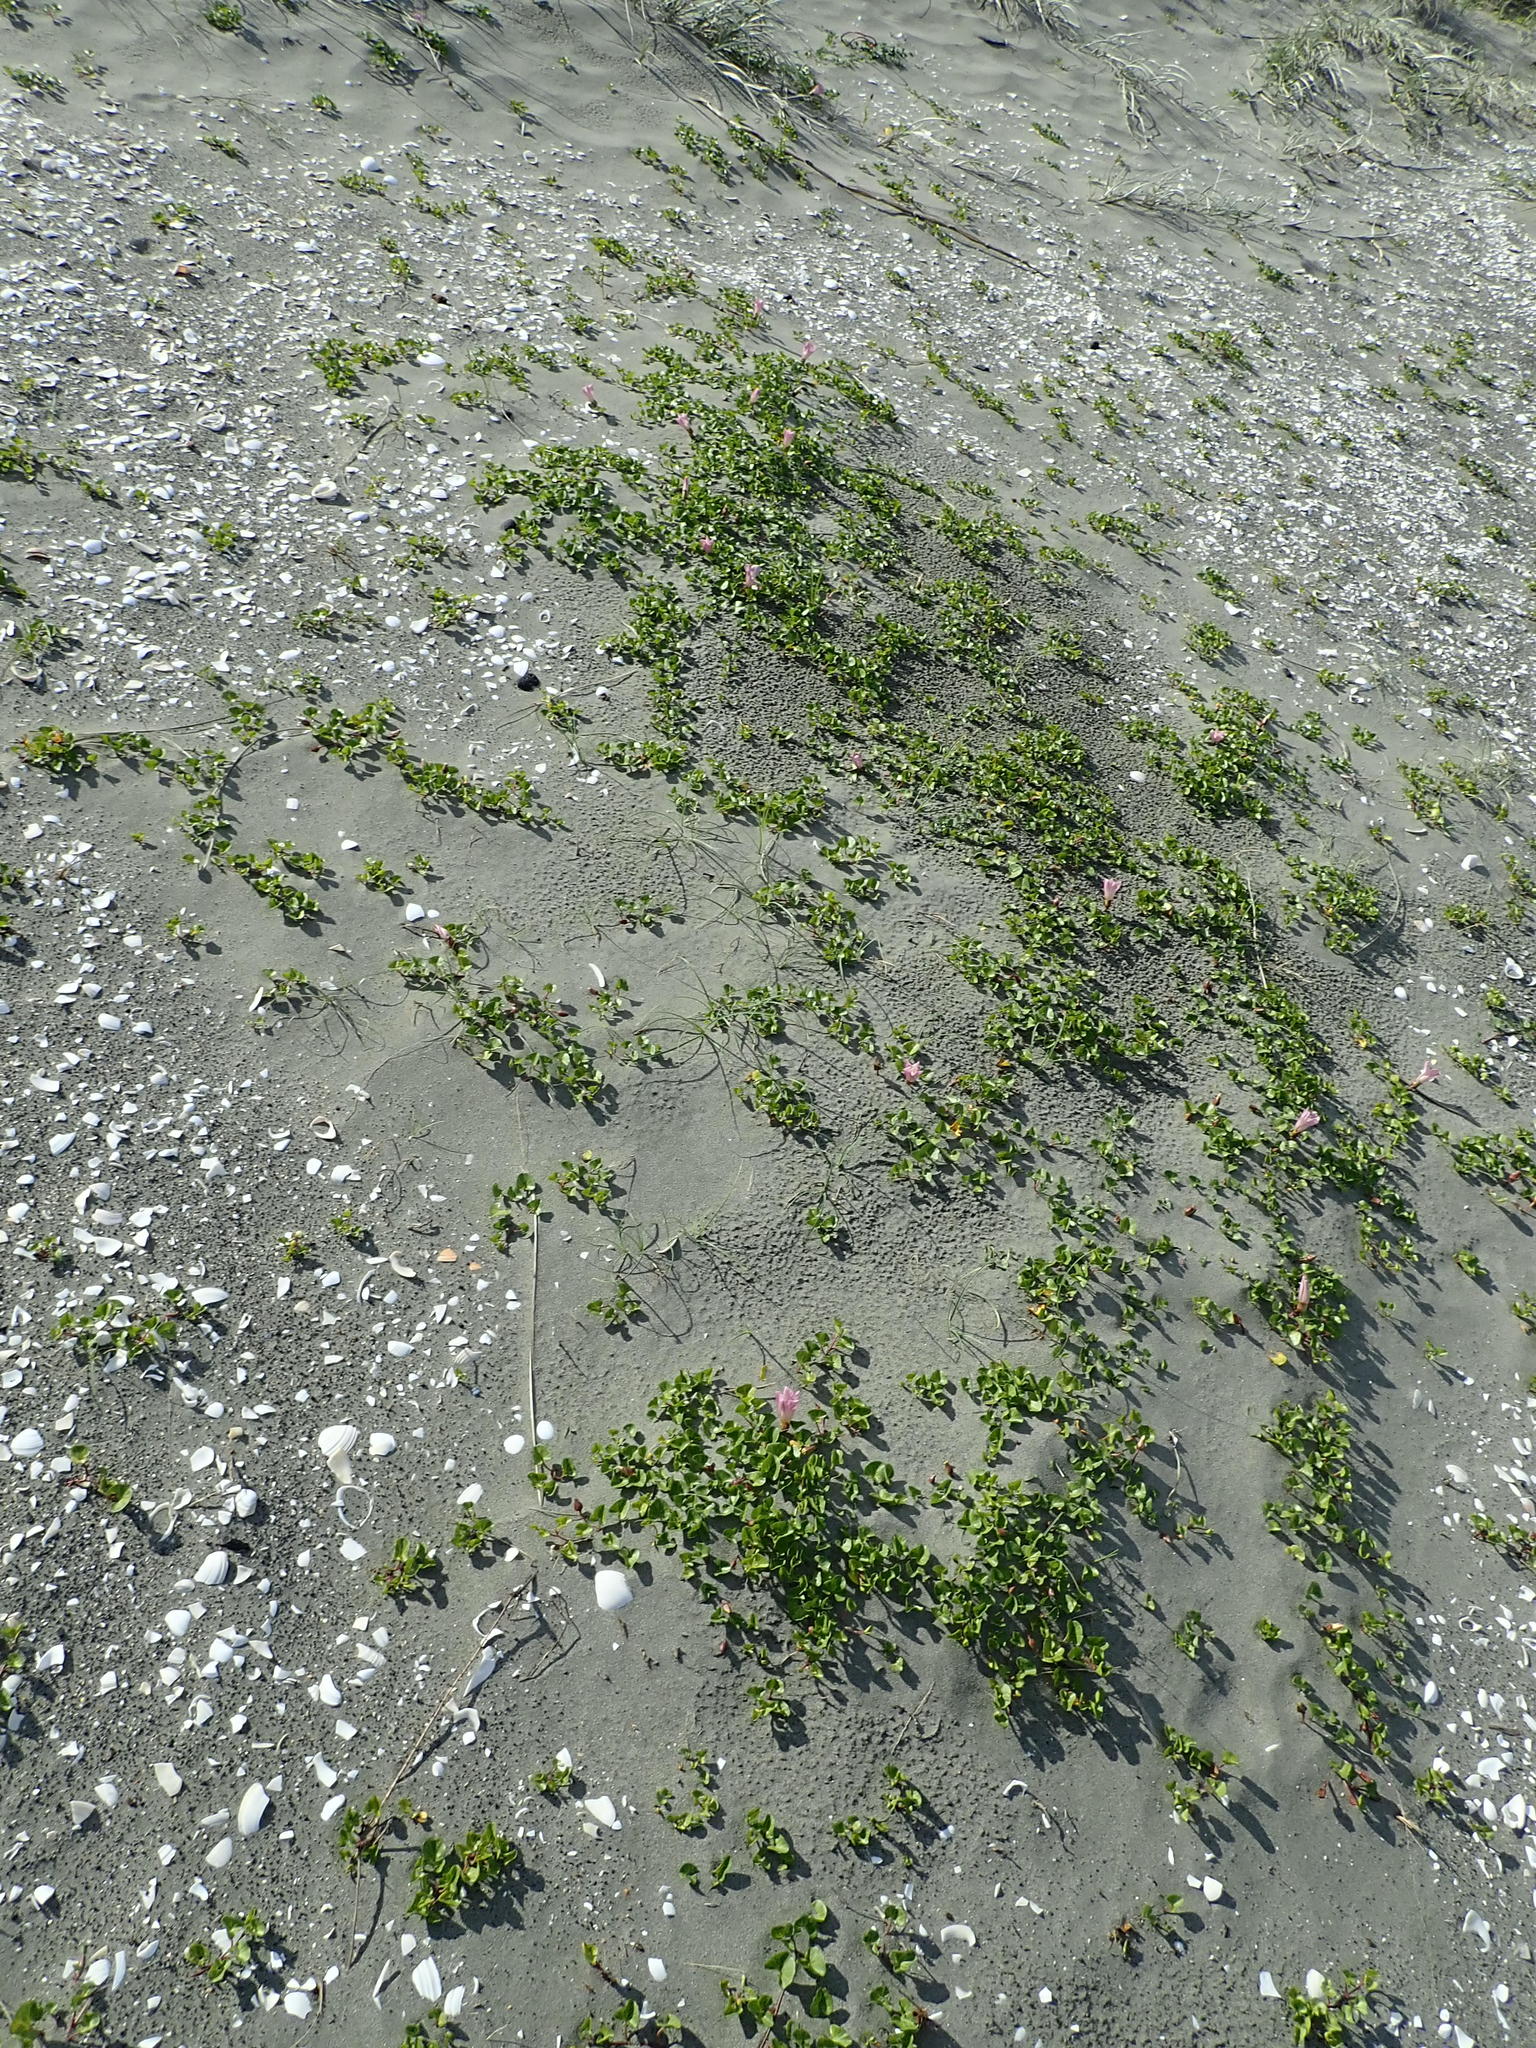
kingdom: Plantae
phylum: Tracheophyta
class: Magnoliopsida
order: Solanales
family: Convolvulaceae
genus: Calystegia
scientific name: Calystegia soldanella
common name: Sea bindweed
